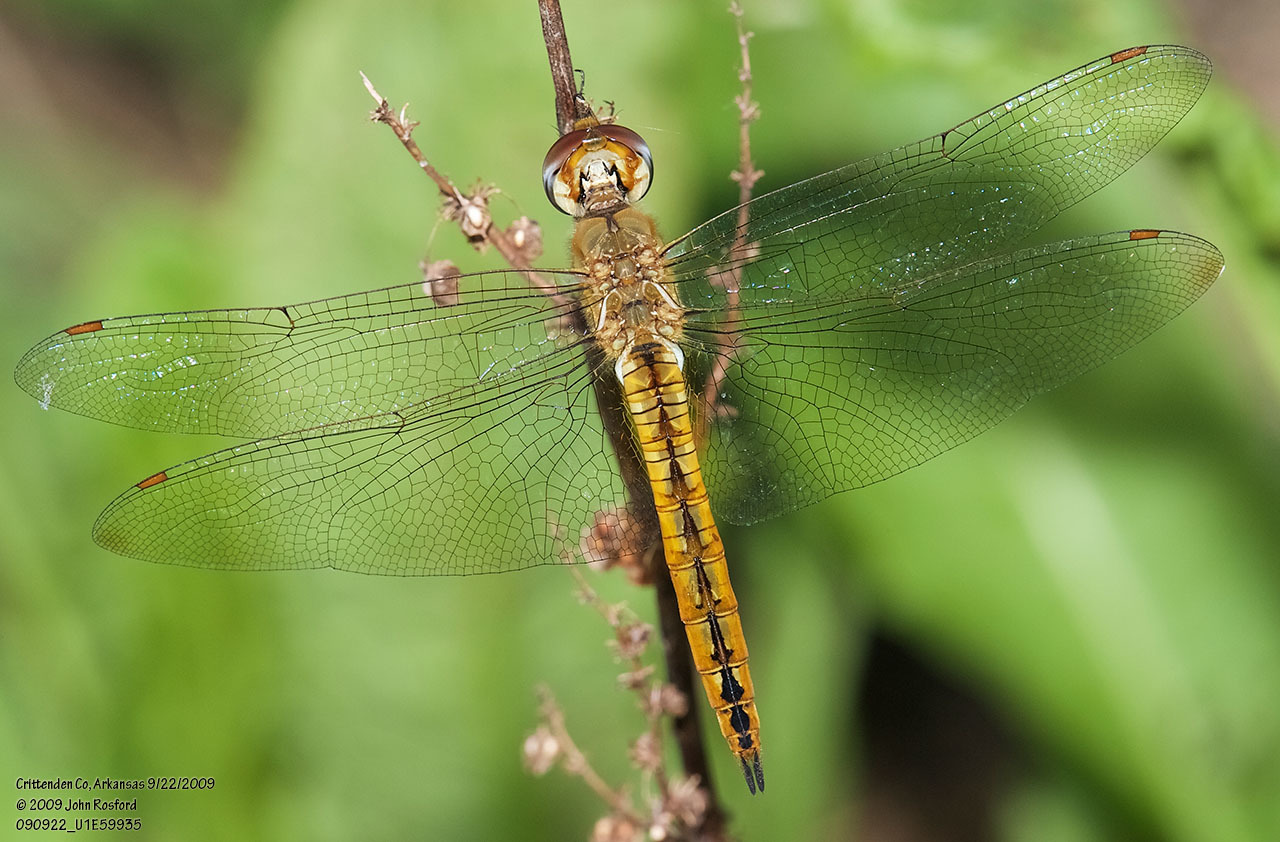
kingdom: Animalia
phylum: Arthropoda
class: Insecta
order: Odonata
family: Libellulidae
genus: Pantala
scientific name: Pantala flavescens
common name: Wandering glider
